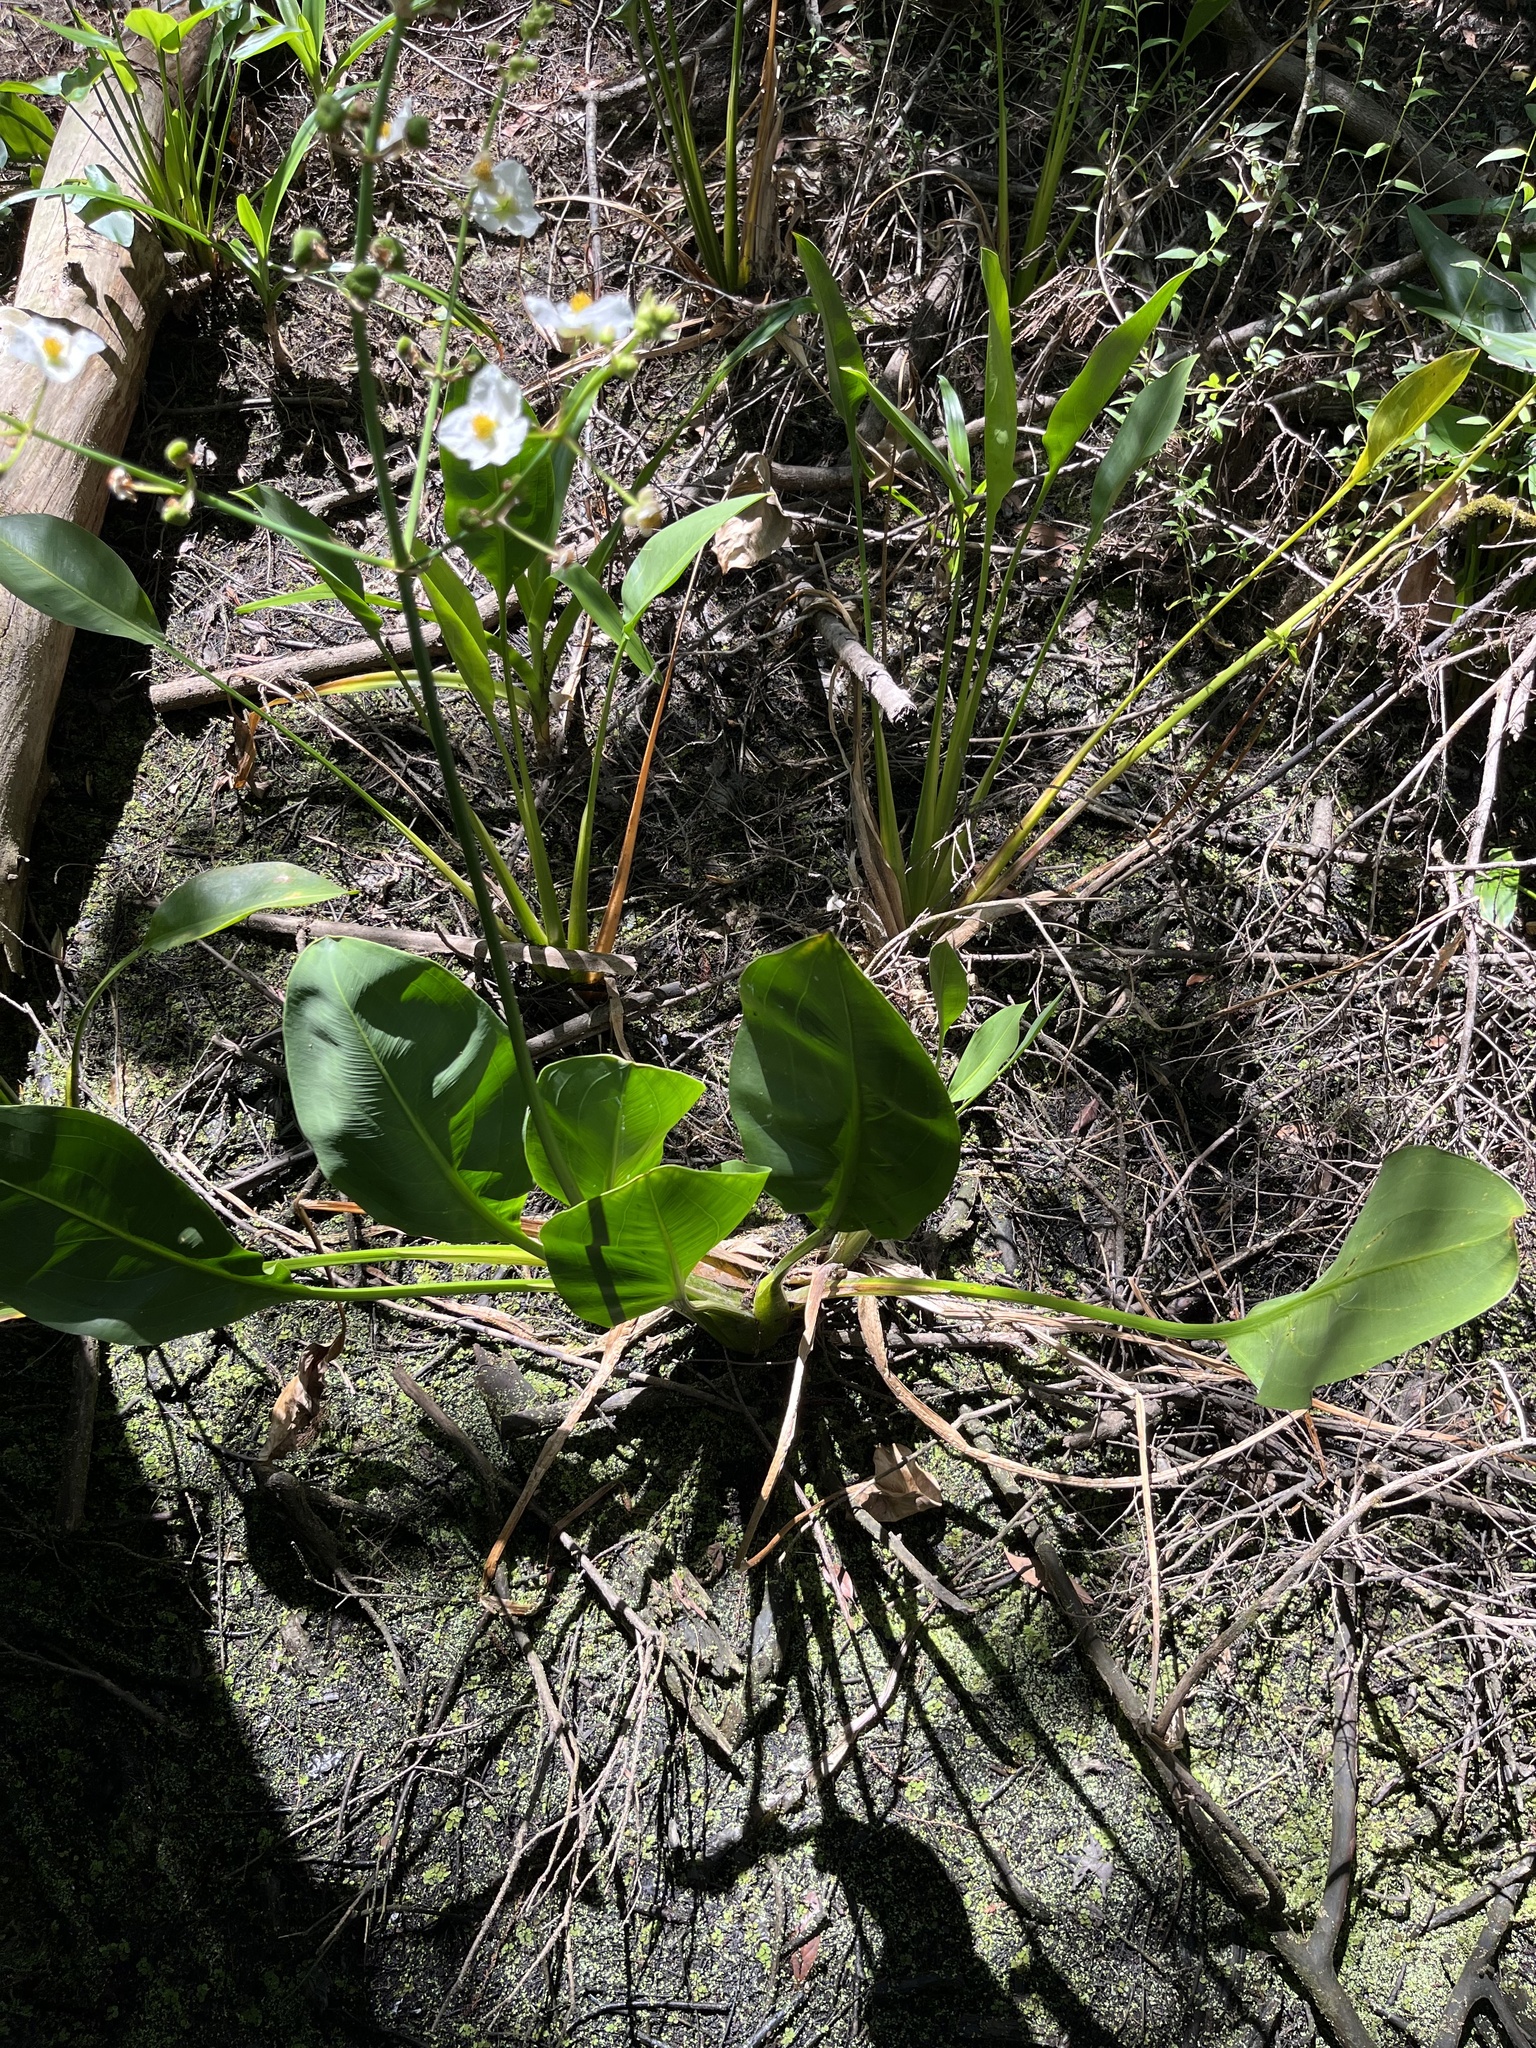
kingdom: Plantae
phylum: Tracheophyta
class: Liliopsida
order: Alismatales
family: Alismataceae
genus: Sagittaria
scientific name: Sagittaria lancifolia
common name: Lance-leaf arrowhead
